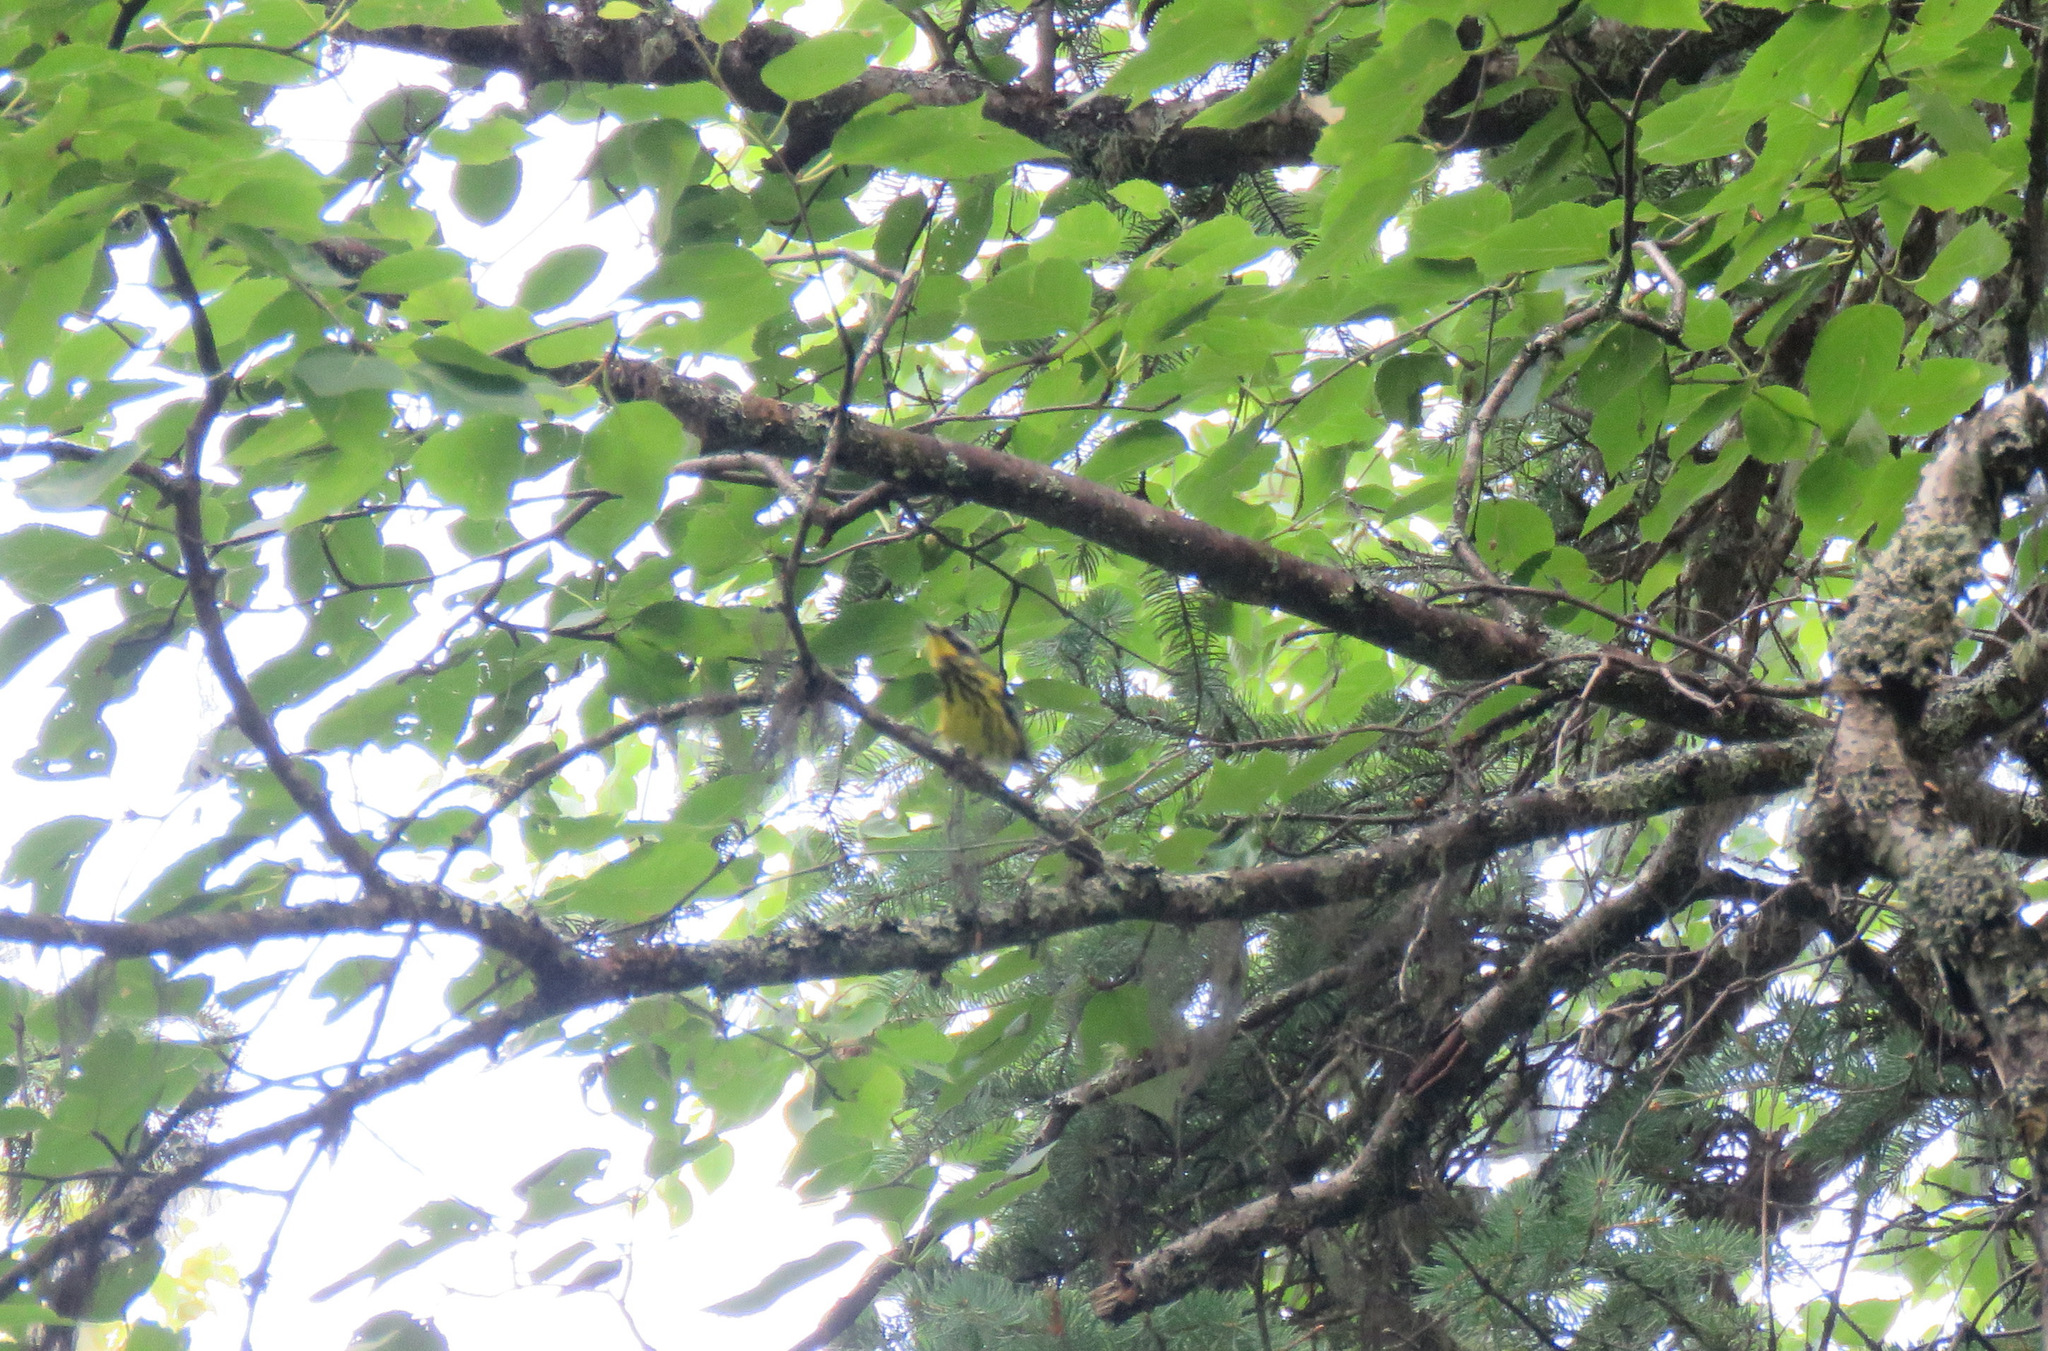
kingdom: Animalia
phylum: Chordata
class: Aves
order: Passeriformes
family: Parulidae
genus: Setophaga
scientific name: Setophaga magnolia
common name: Magnolia warbler
